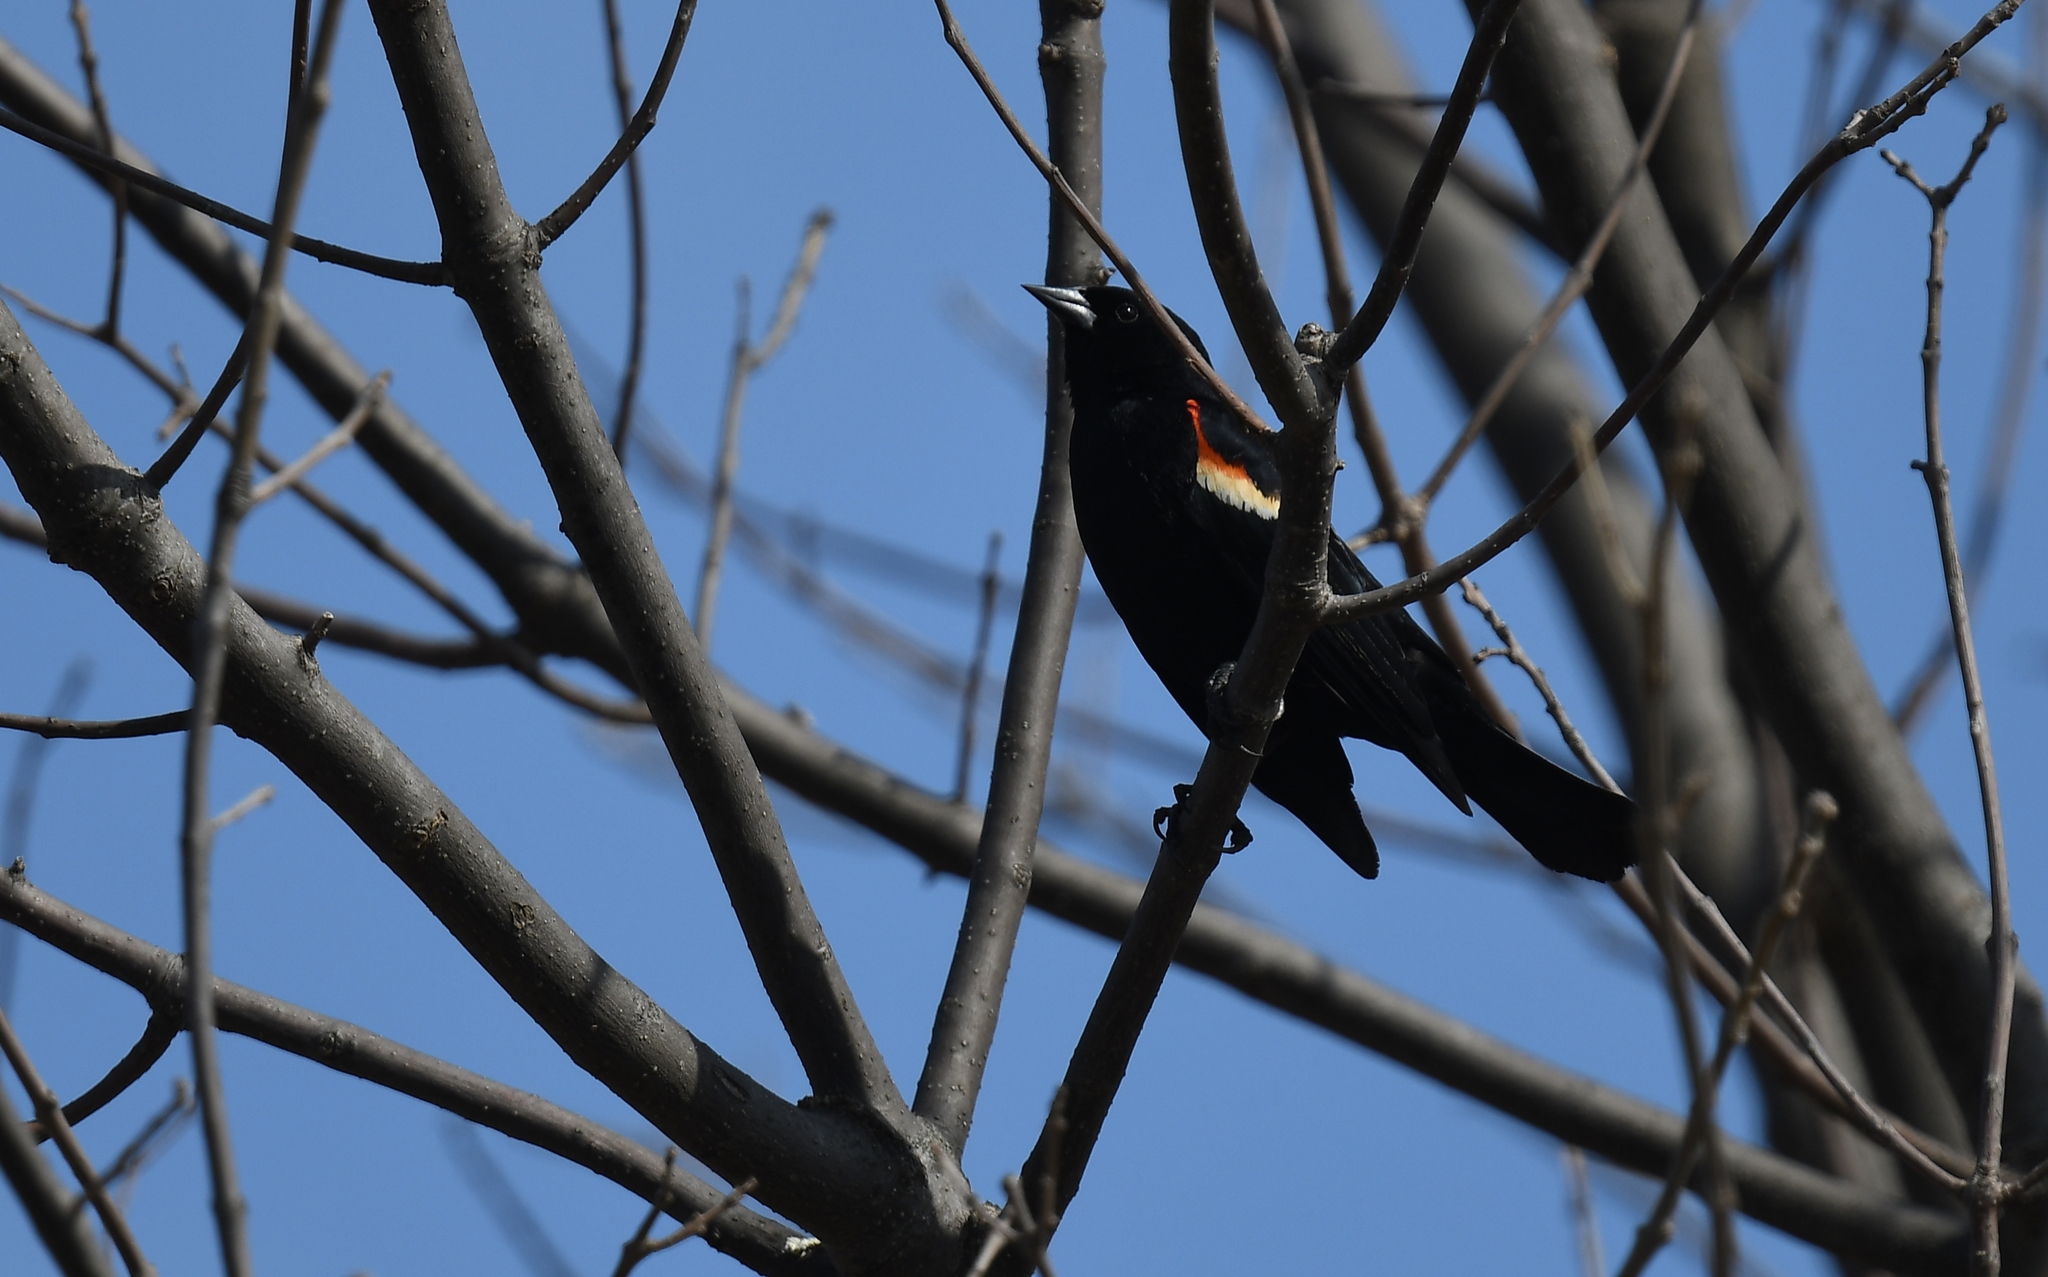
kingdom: Animalia
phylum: Chordata
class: Aves
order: Passeriformes
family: Icteridae
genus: Agelaius
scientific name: Agelaius phoeniceus
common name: Red-winged blackbird
